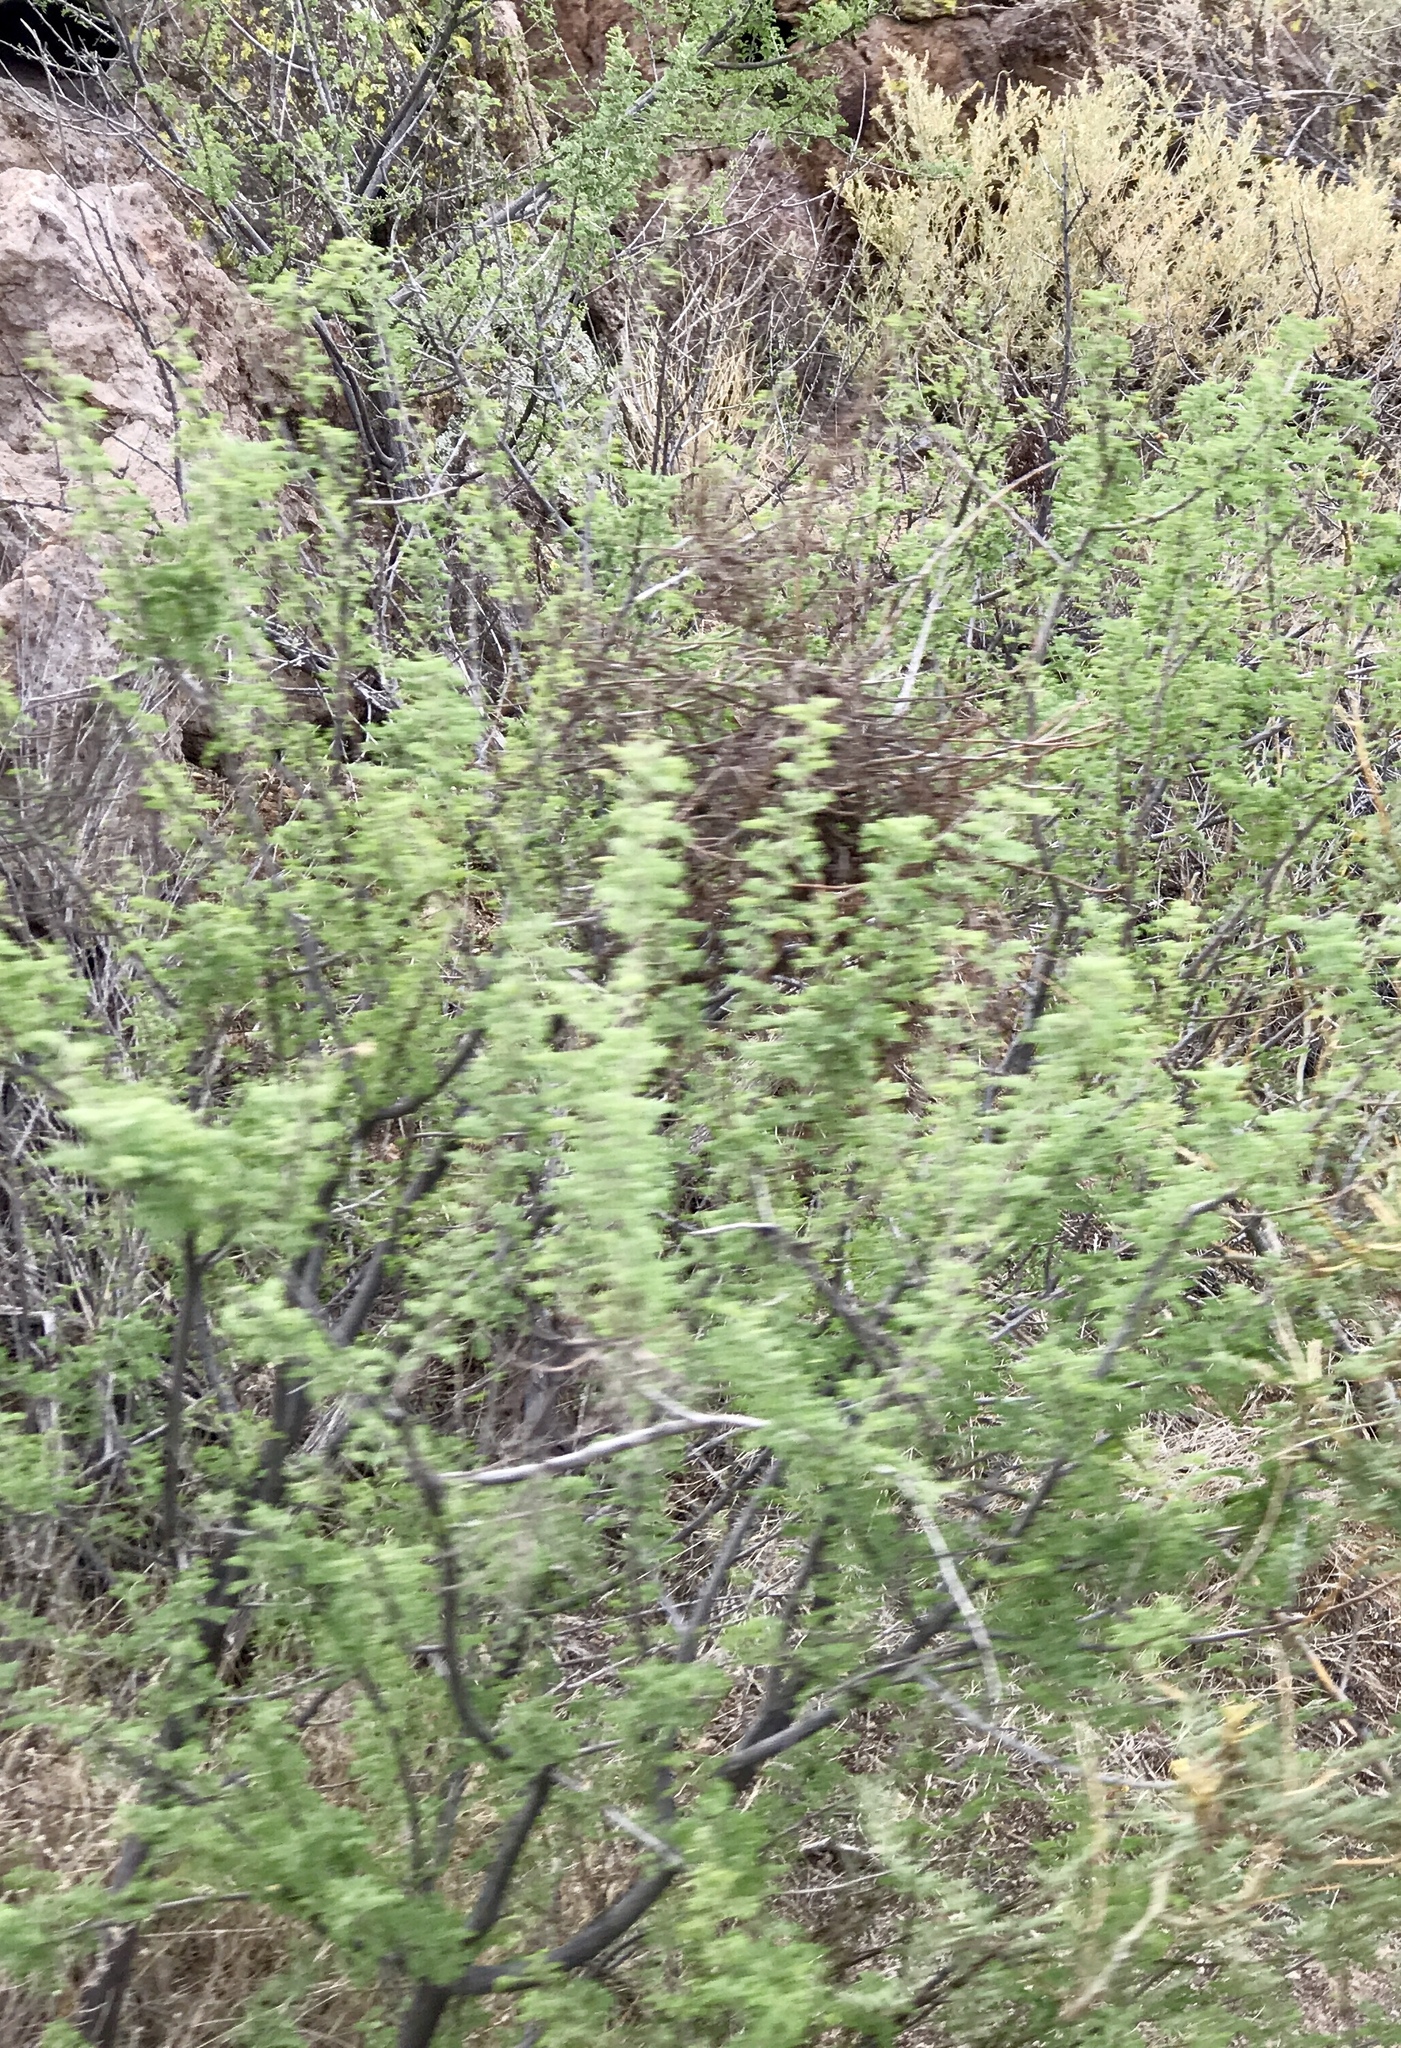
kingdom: Plantae
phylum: Tracheophyta
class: Magnoliopsida
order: Fabales
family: Fabaceae
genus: Senegalia
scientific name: Senegalia greggii
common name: Texas-mimosa
